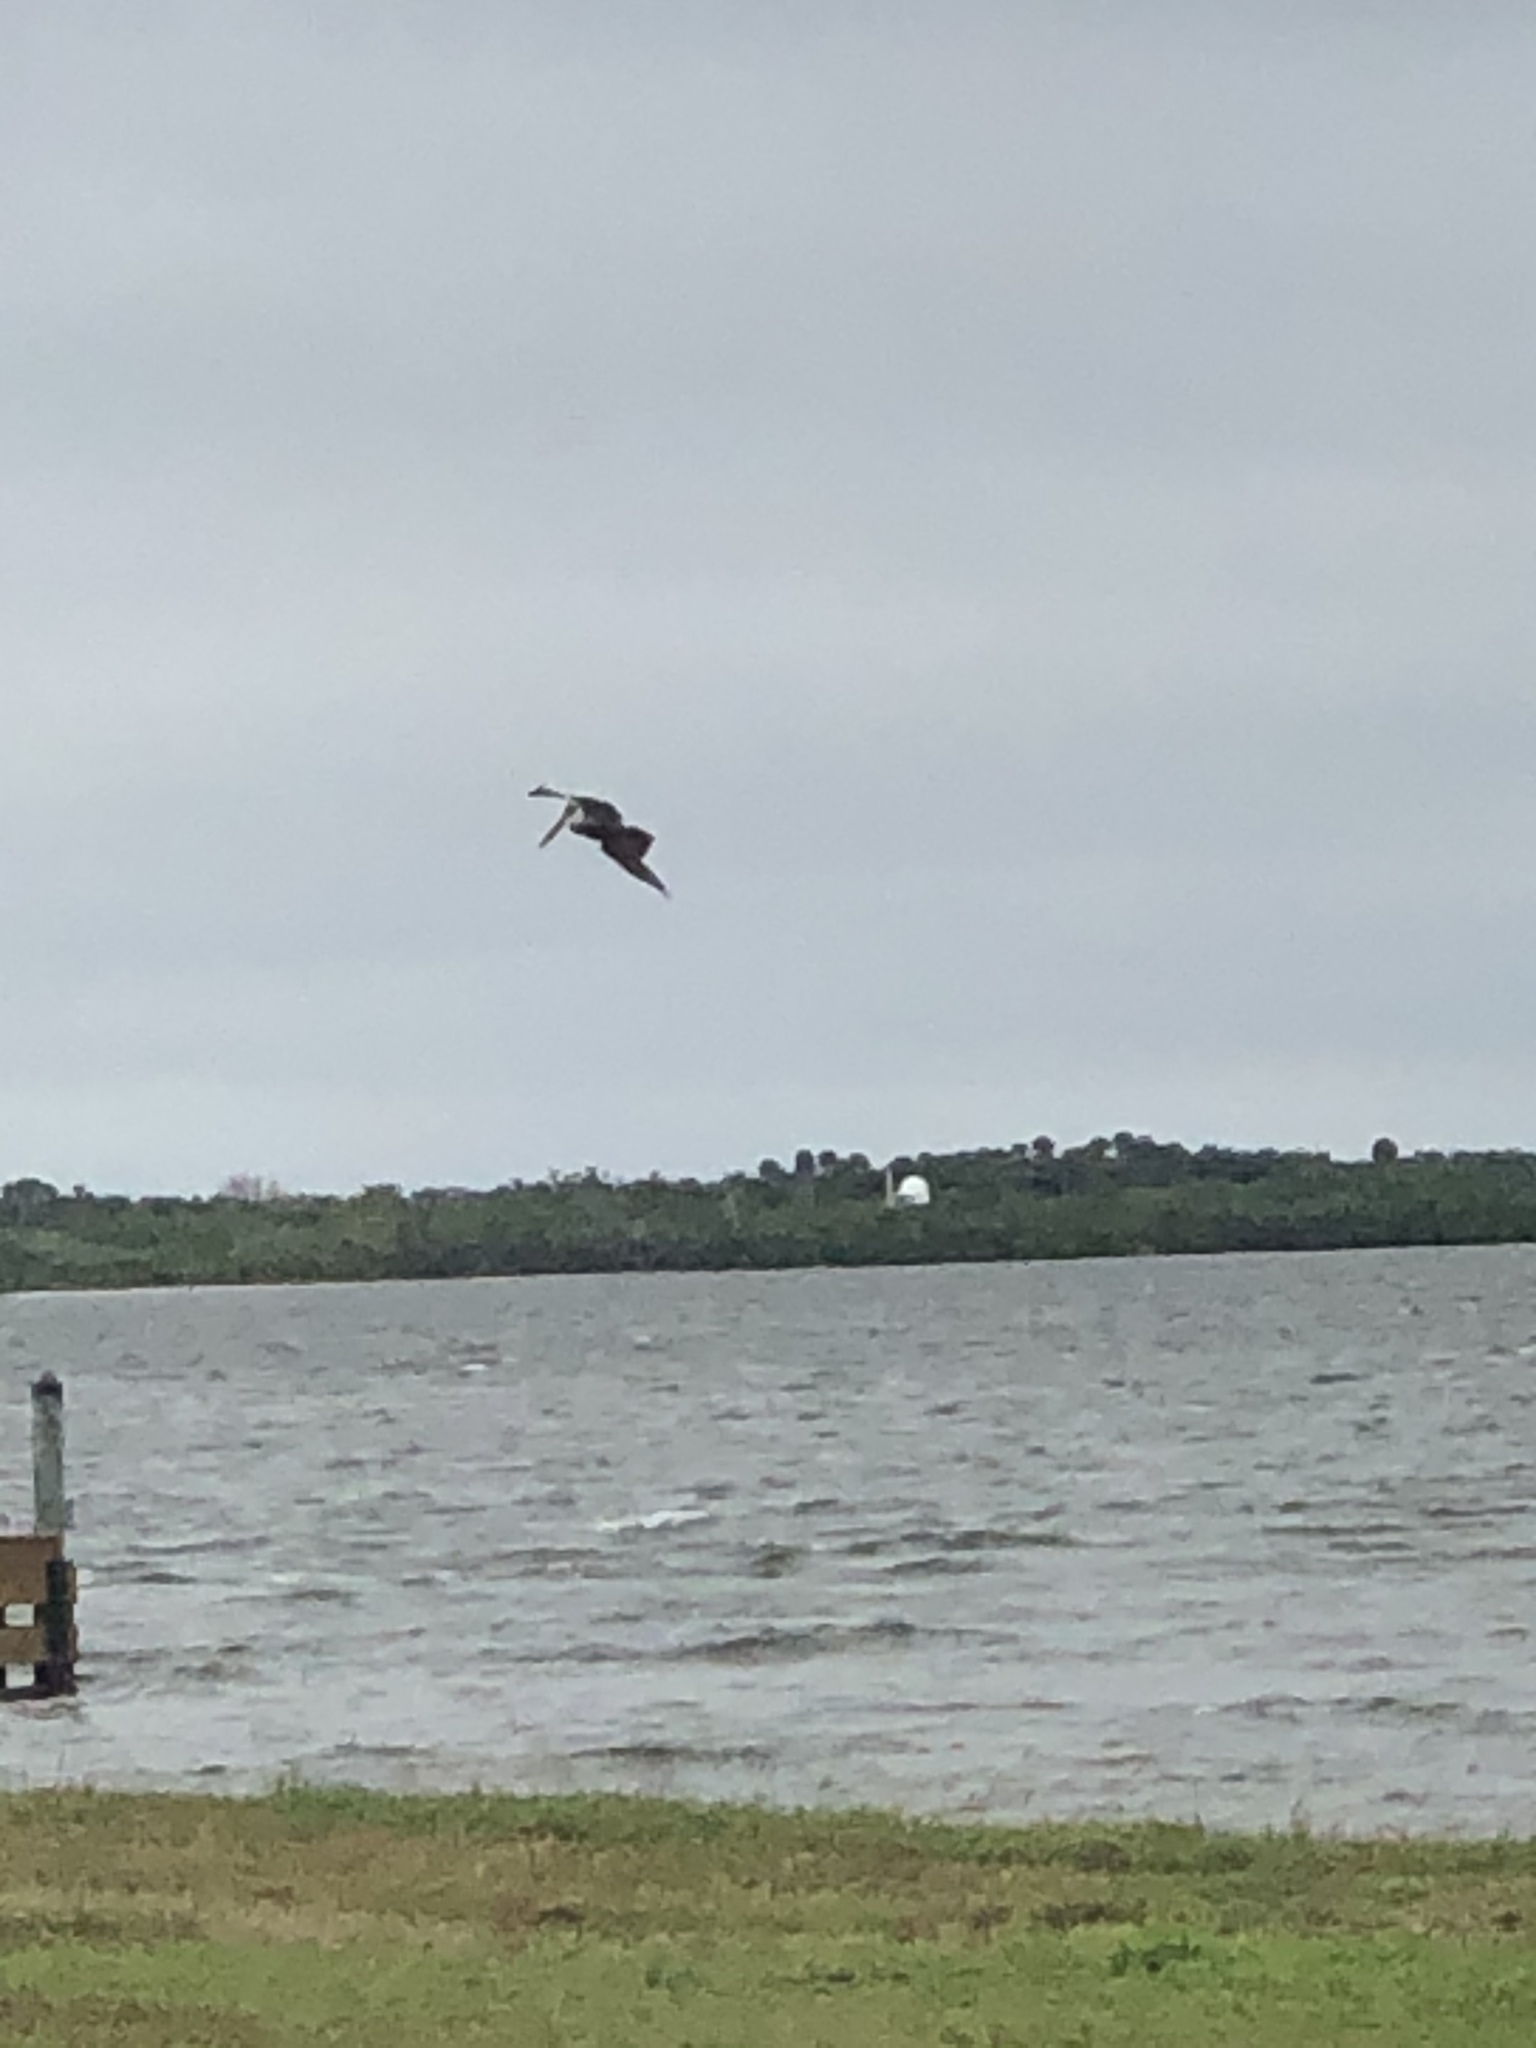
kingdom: Animalia
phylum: Chordata
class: Aves
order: Pelecaniformes
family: Pelecanidae
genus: Pelecanus
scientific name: Pelecanus occidentalis
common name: Brown pelican
